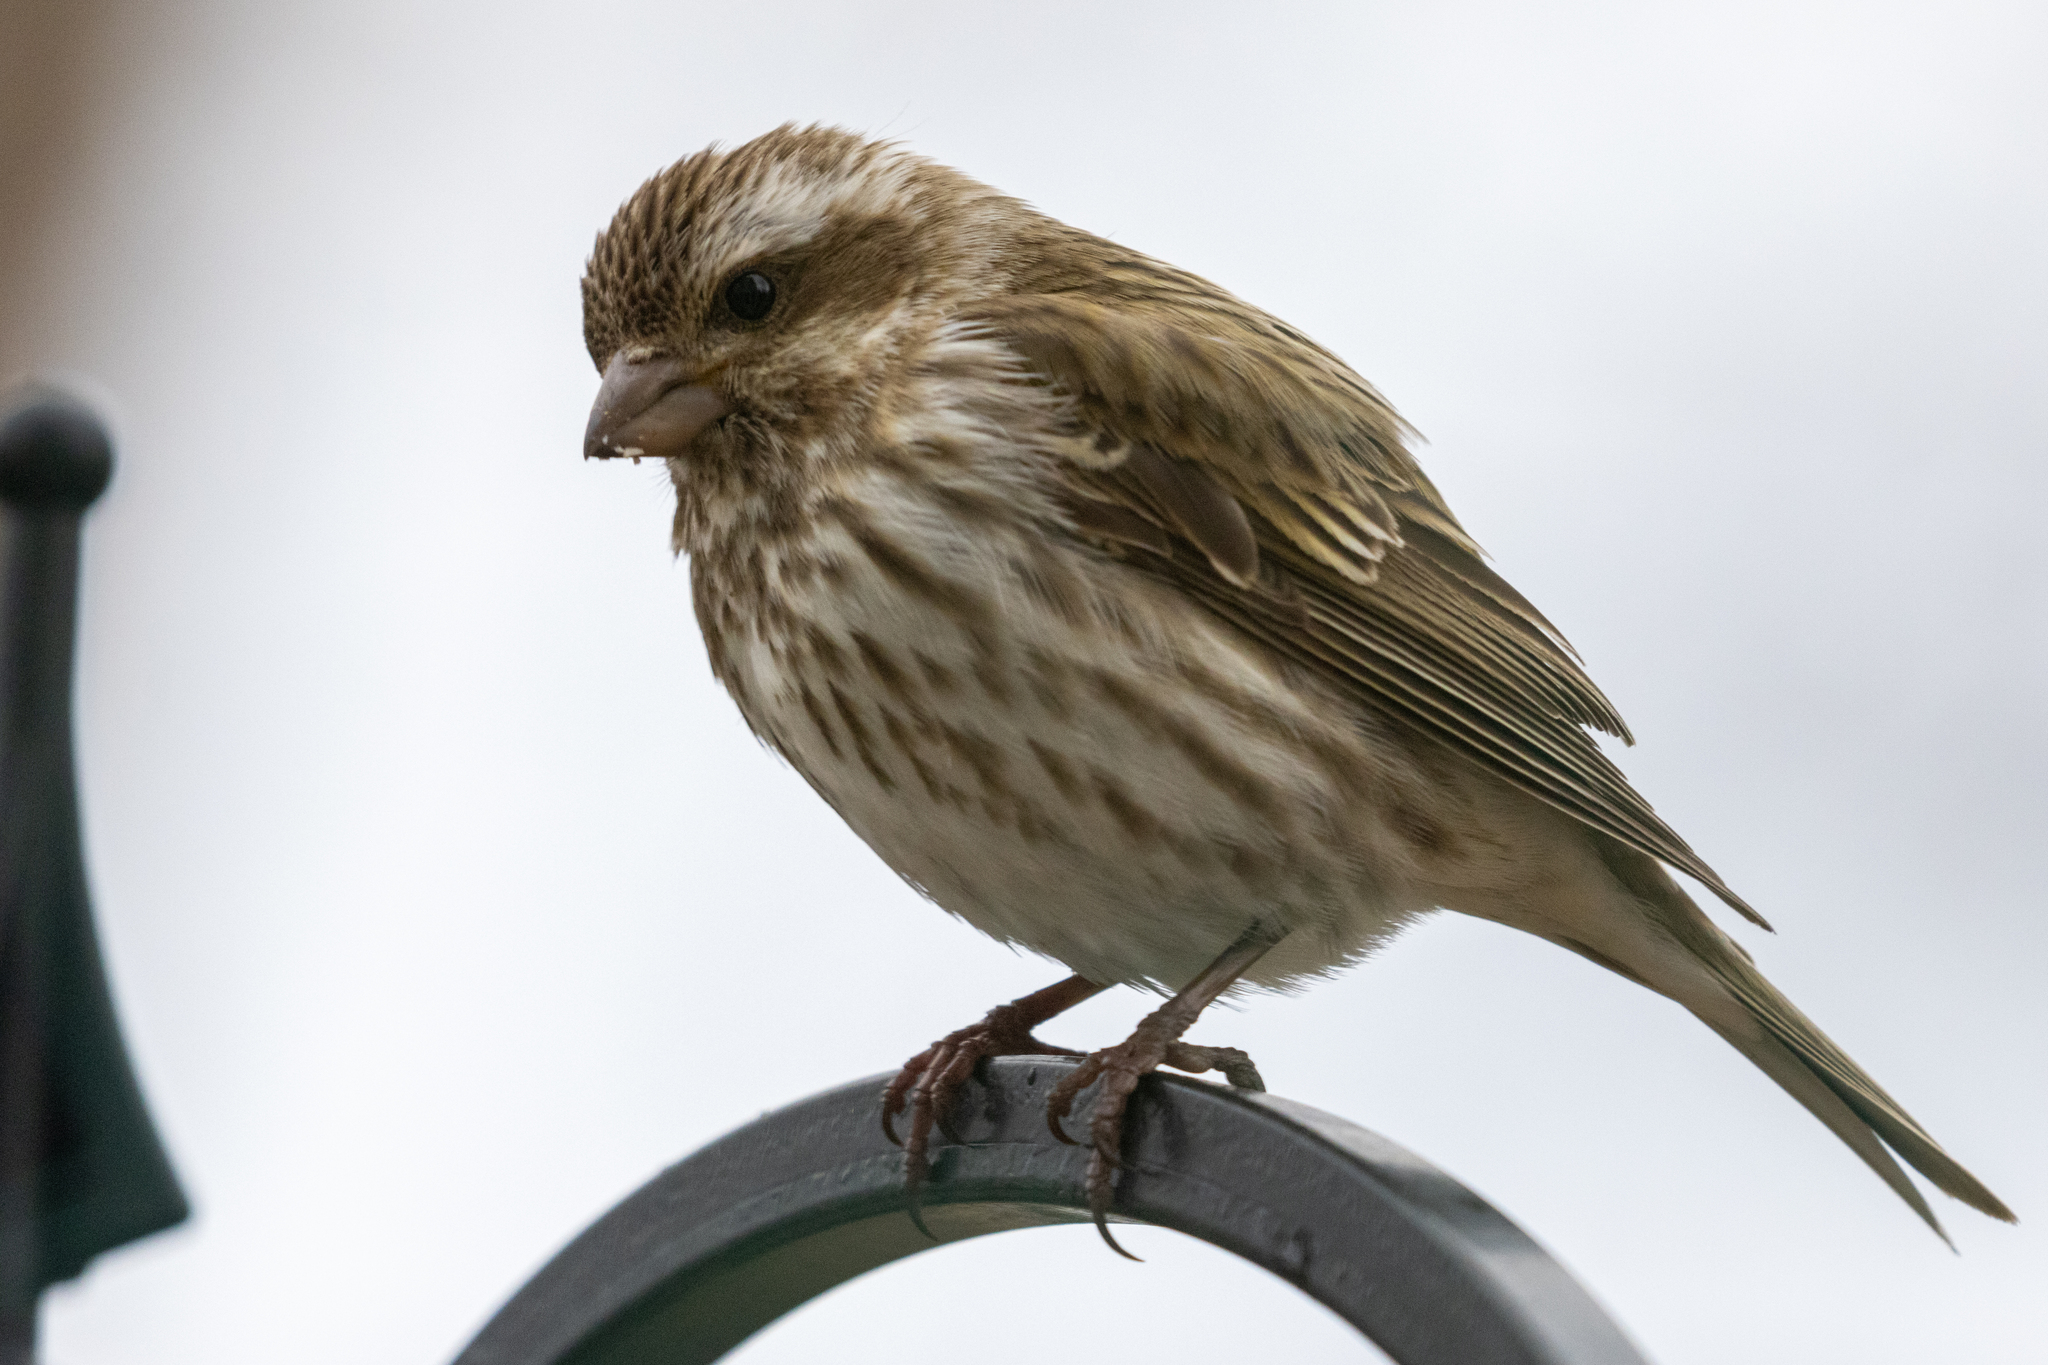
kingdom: Animalia
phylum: Chordata
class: Aves
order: Passeriformes
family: Fringillidae
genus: Haemorhous
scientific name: Haemorhous purpureus
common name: Purple finch
